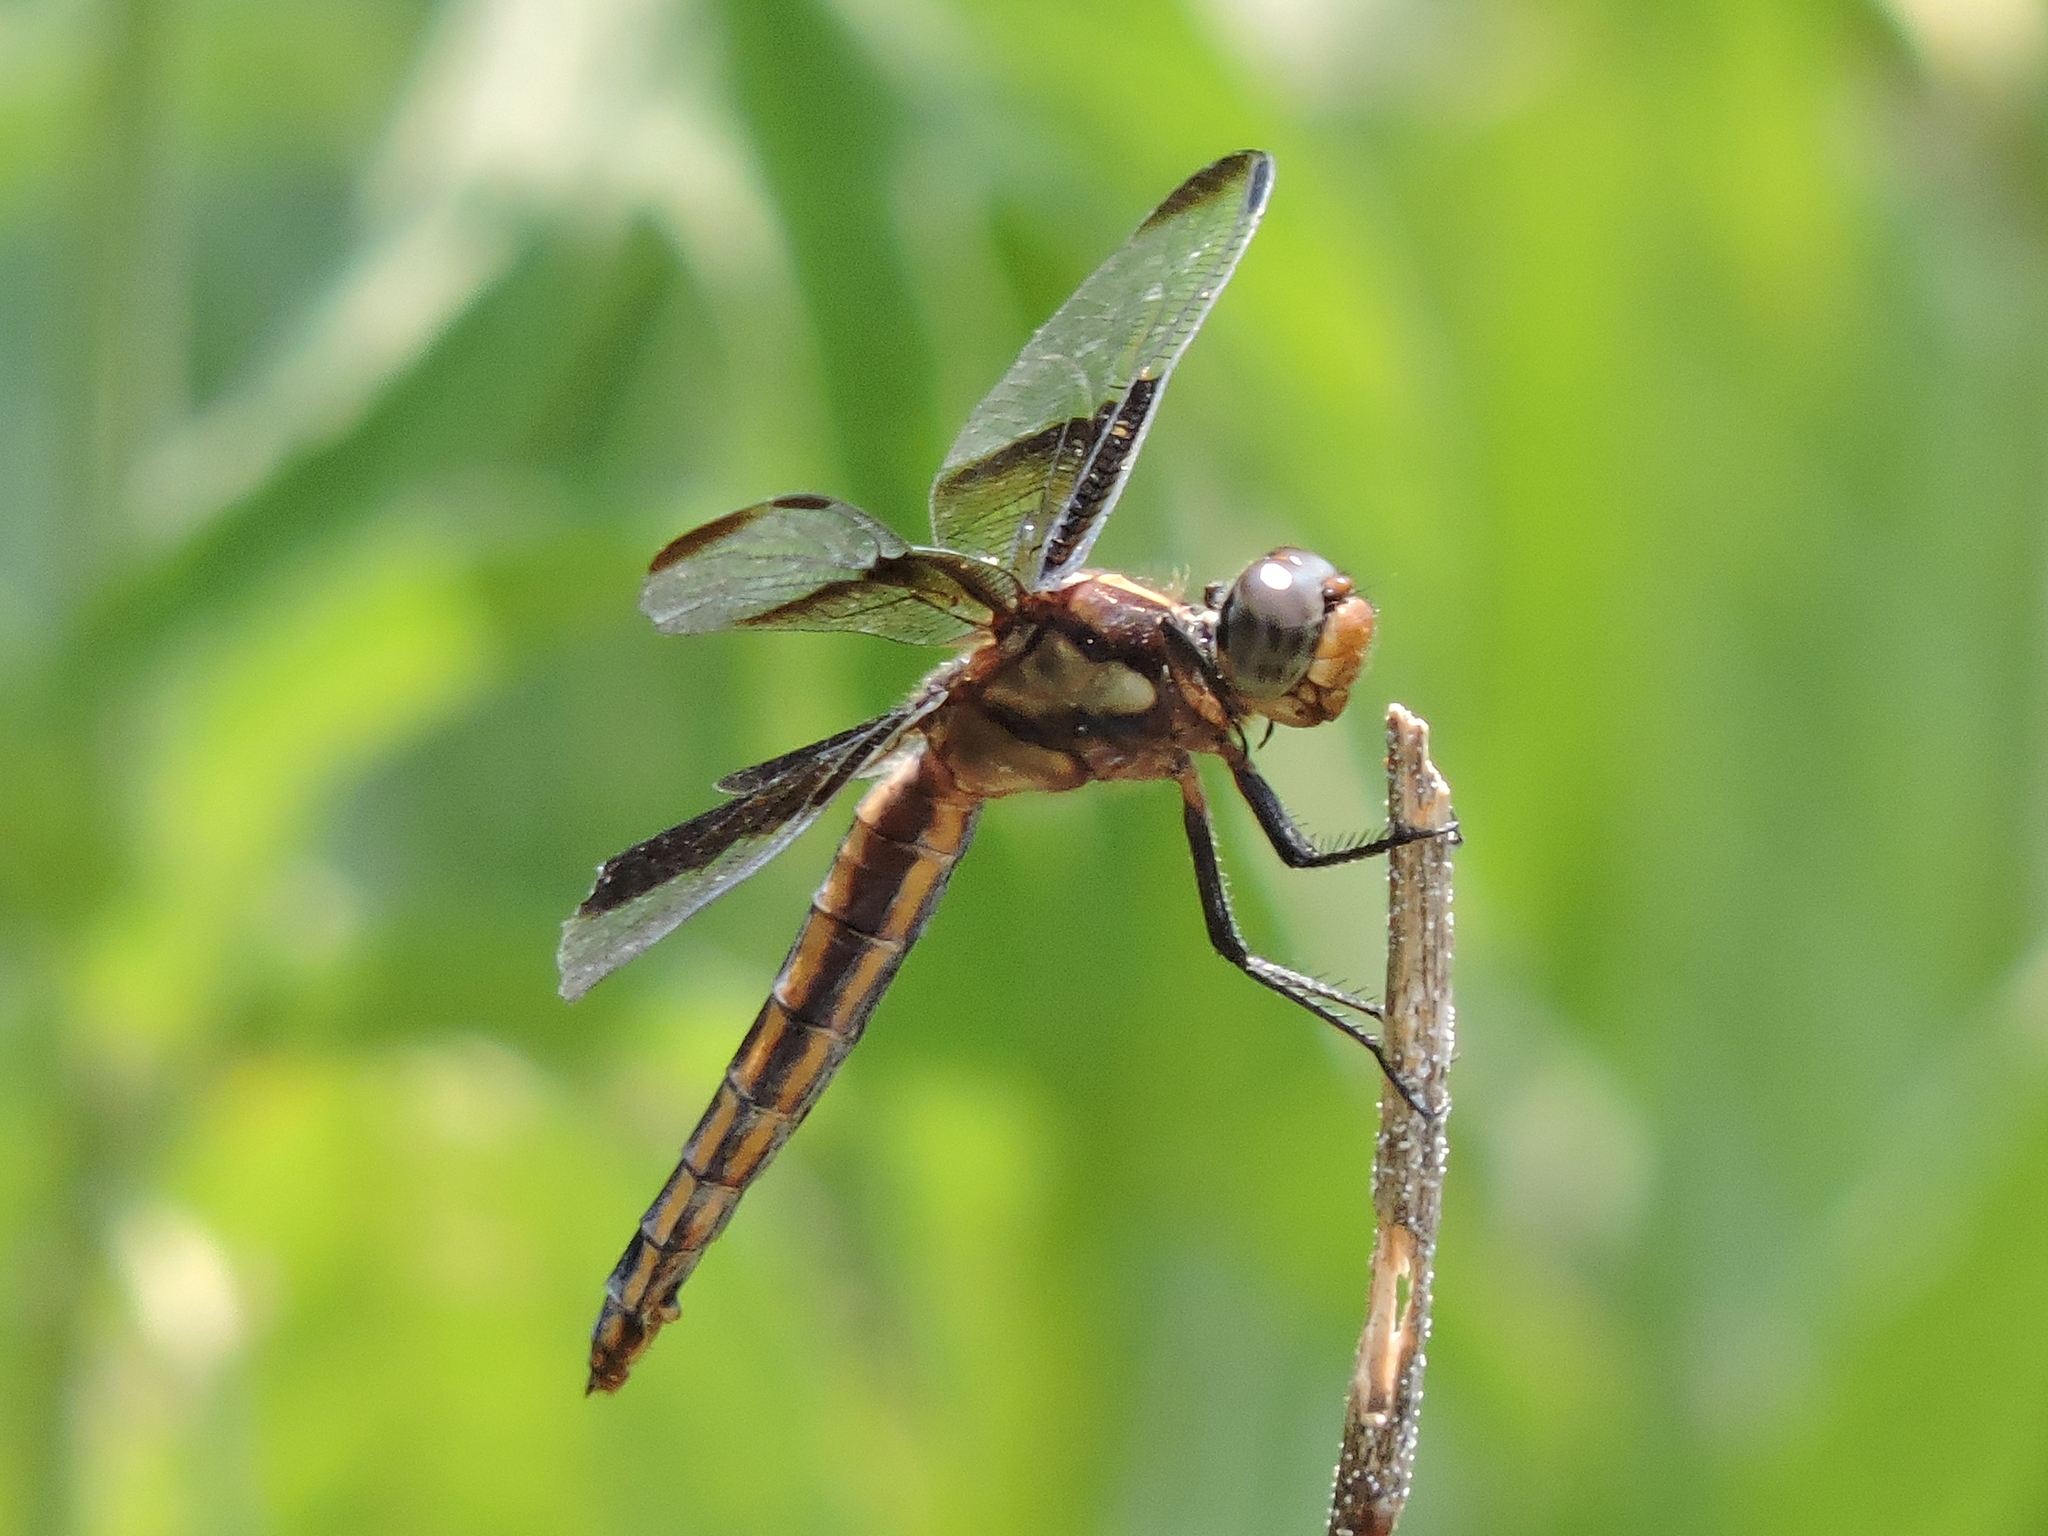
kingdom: Animalia
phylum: Arthropoda
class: Insecta
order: Odonata
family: Libellulidae
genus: Libellula
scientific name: Libellula luctuosa
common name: Widow skimmer
